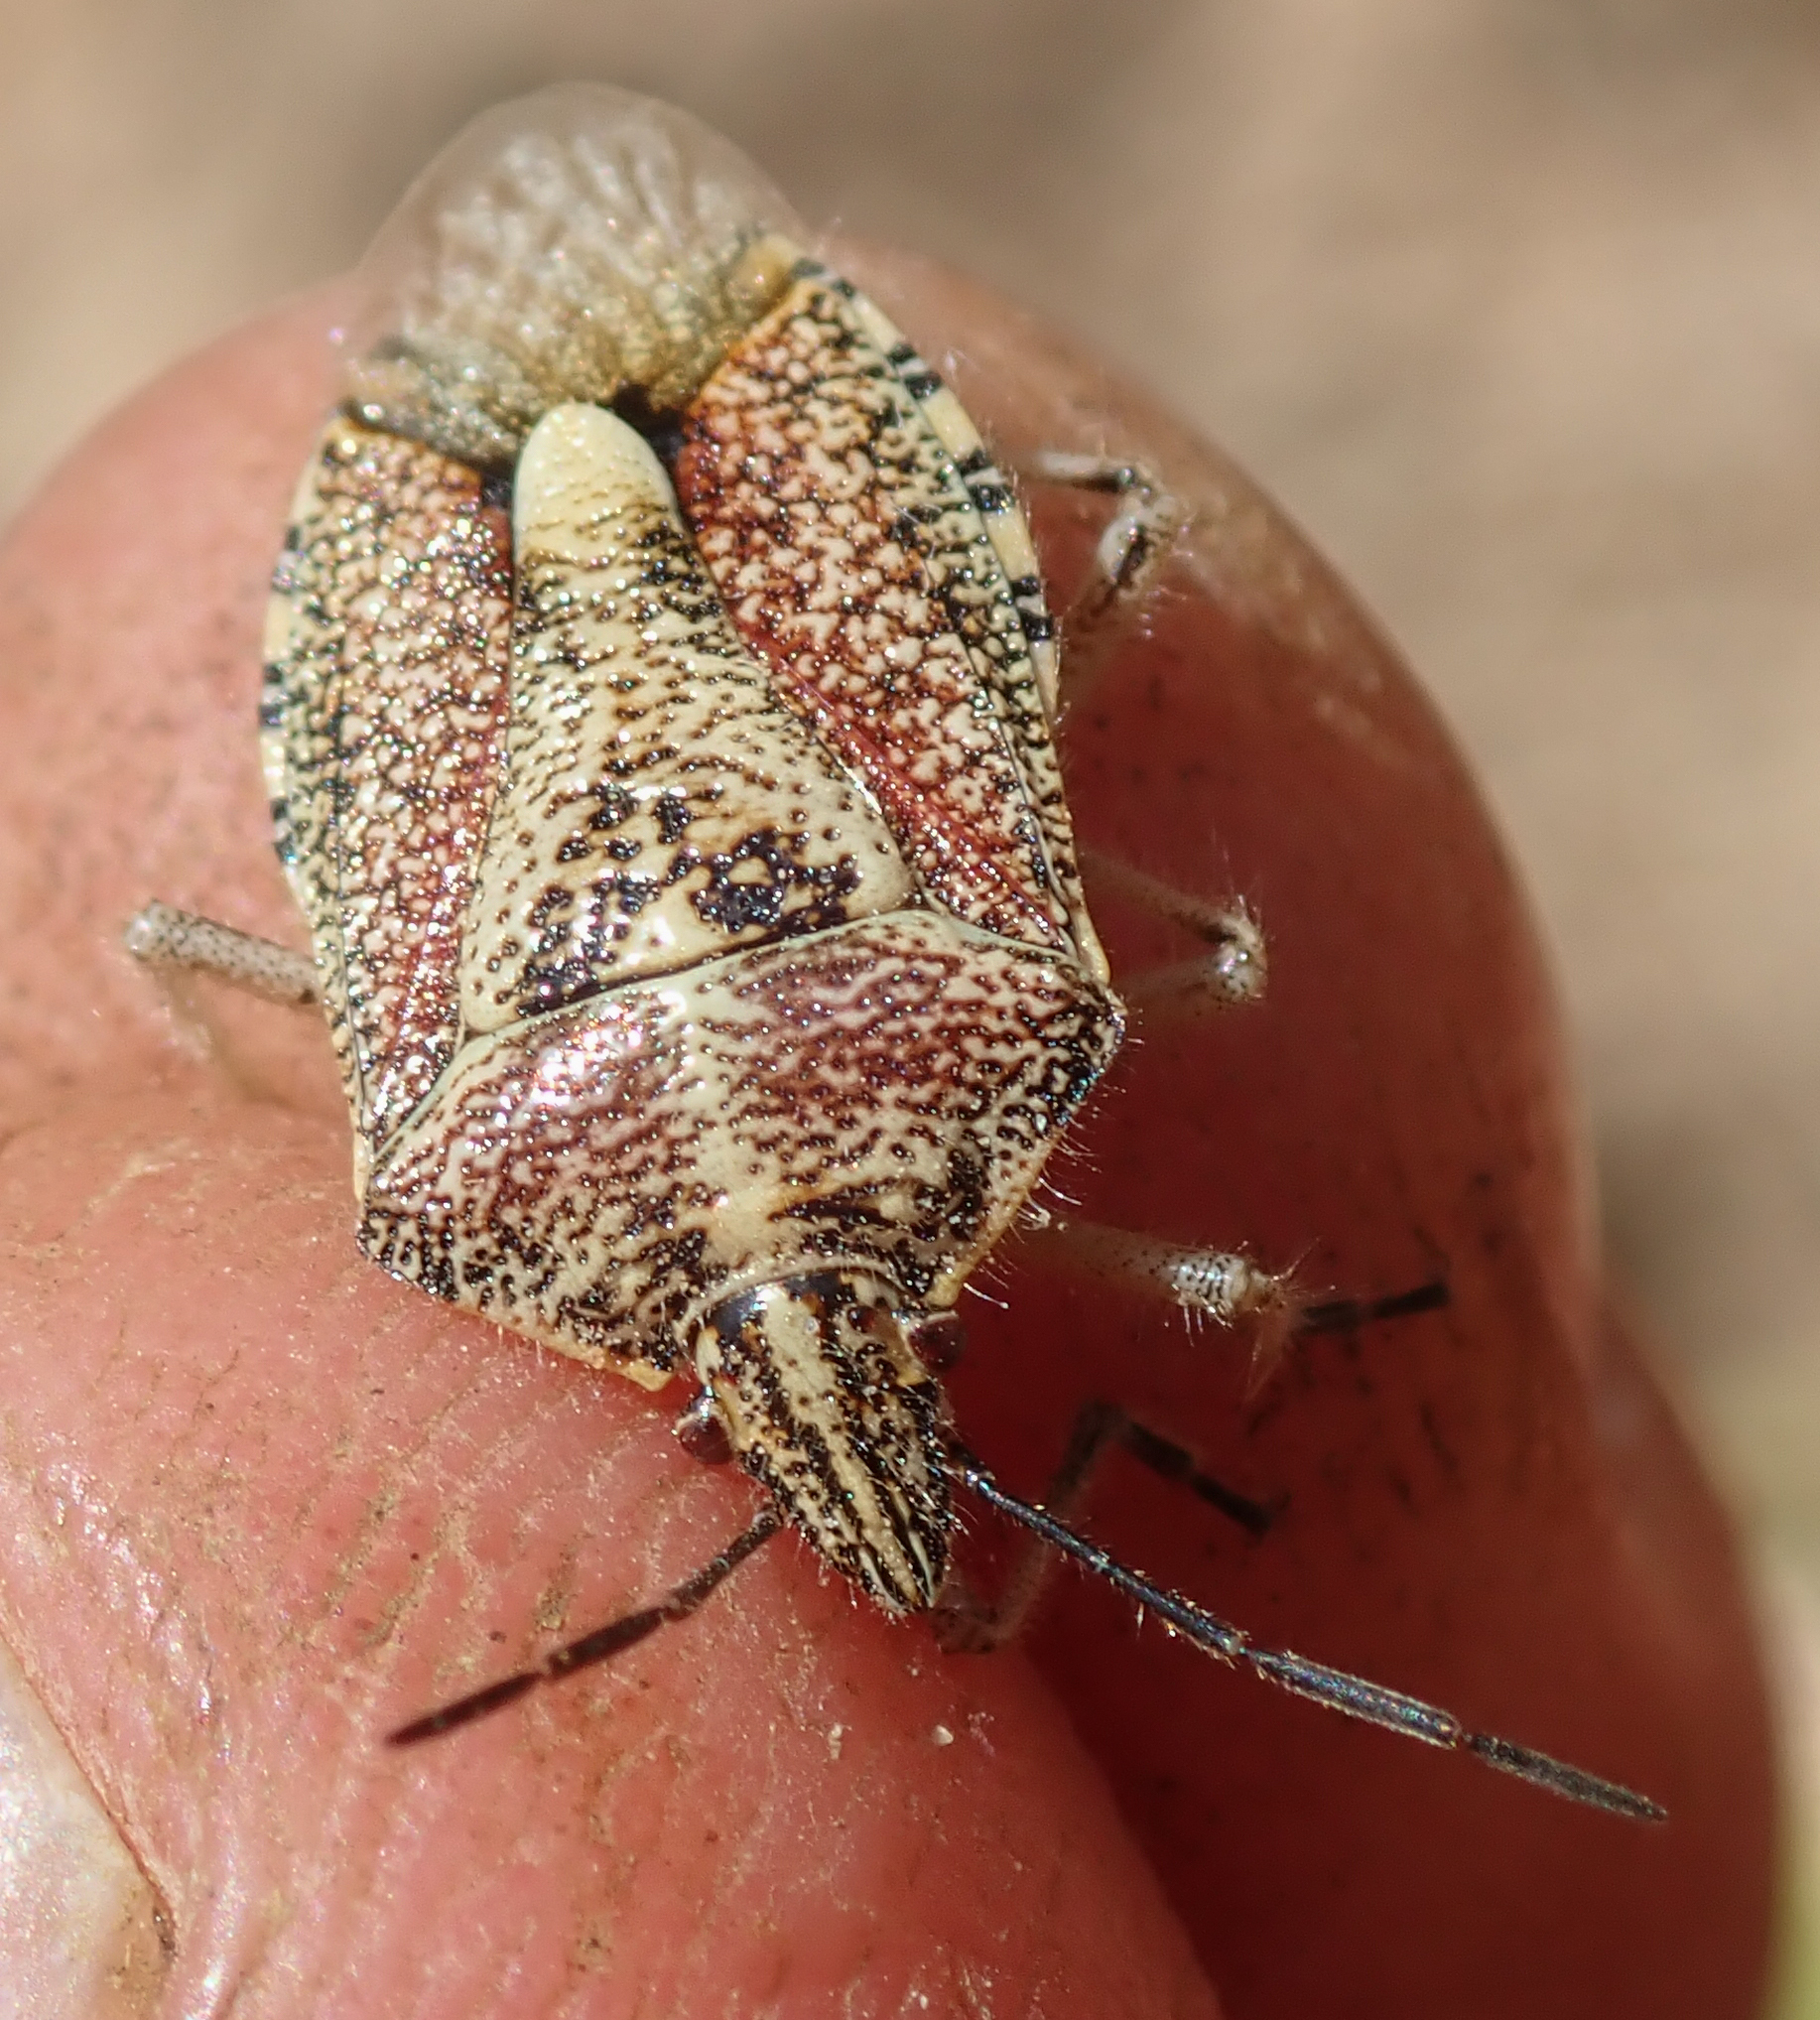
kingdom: Animalia
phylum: Arthropoda
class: Insecta
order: Hemiptera
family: Pentatomidae
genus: Agonoscelis
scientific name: Agonoscelis versicoloratus
